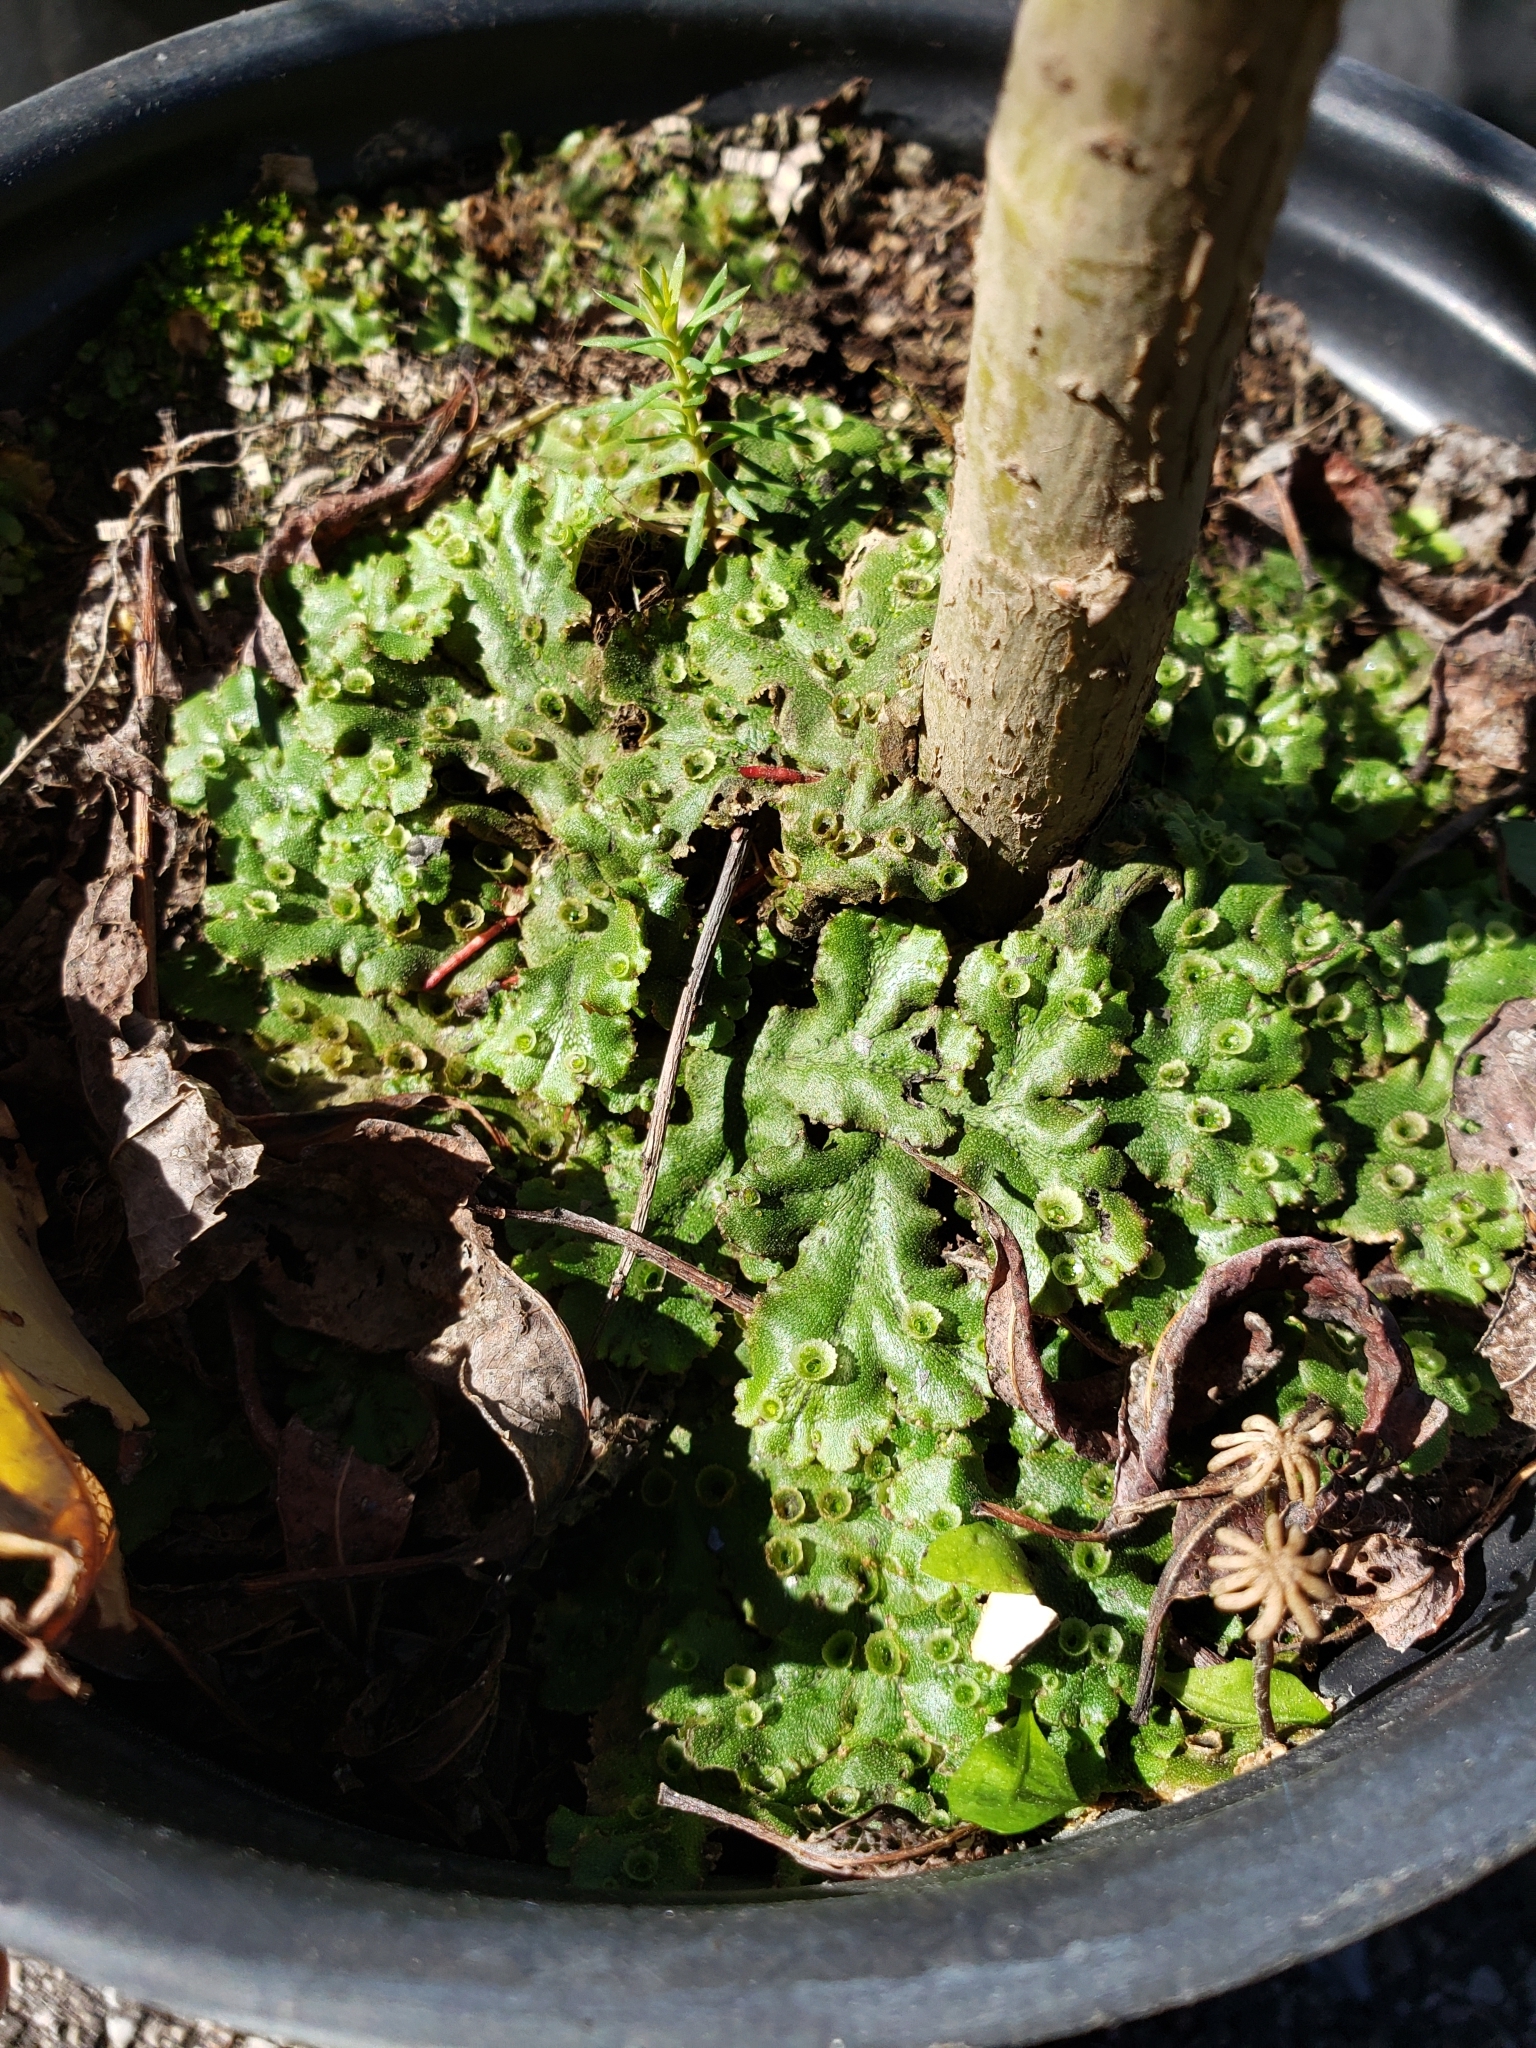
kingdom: Plantae
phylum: Marchantiophyta
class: Marchantiopsida
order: Marchantiales
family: Marchantiaceae
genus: Marchantia
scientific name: Marchantia polymorpha
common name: Common liverwort
